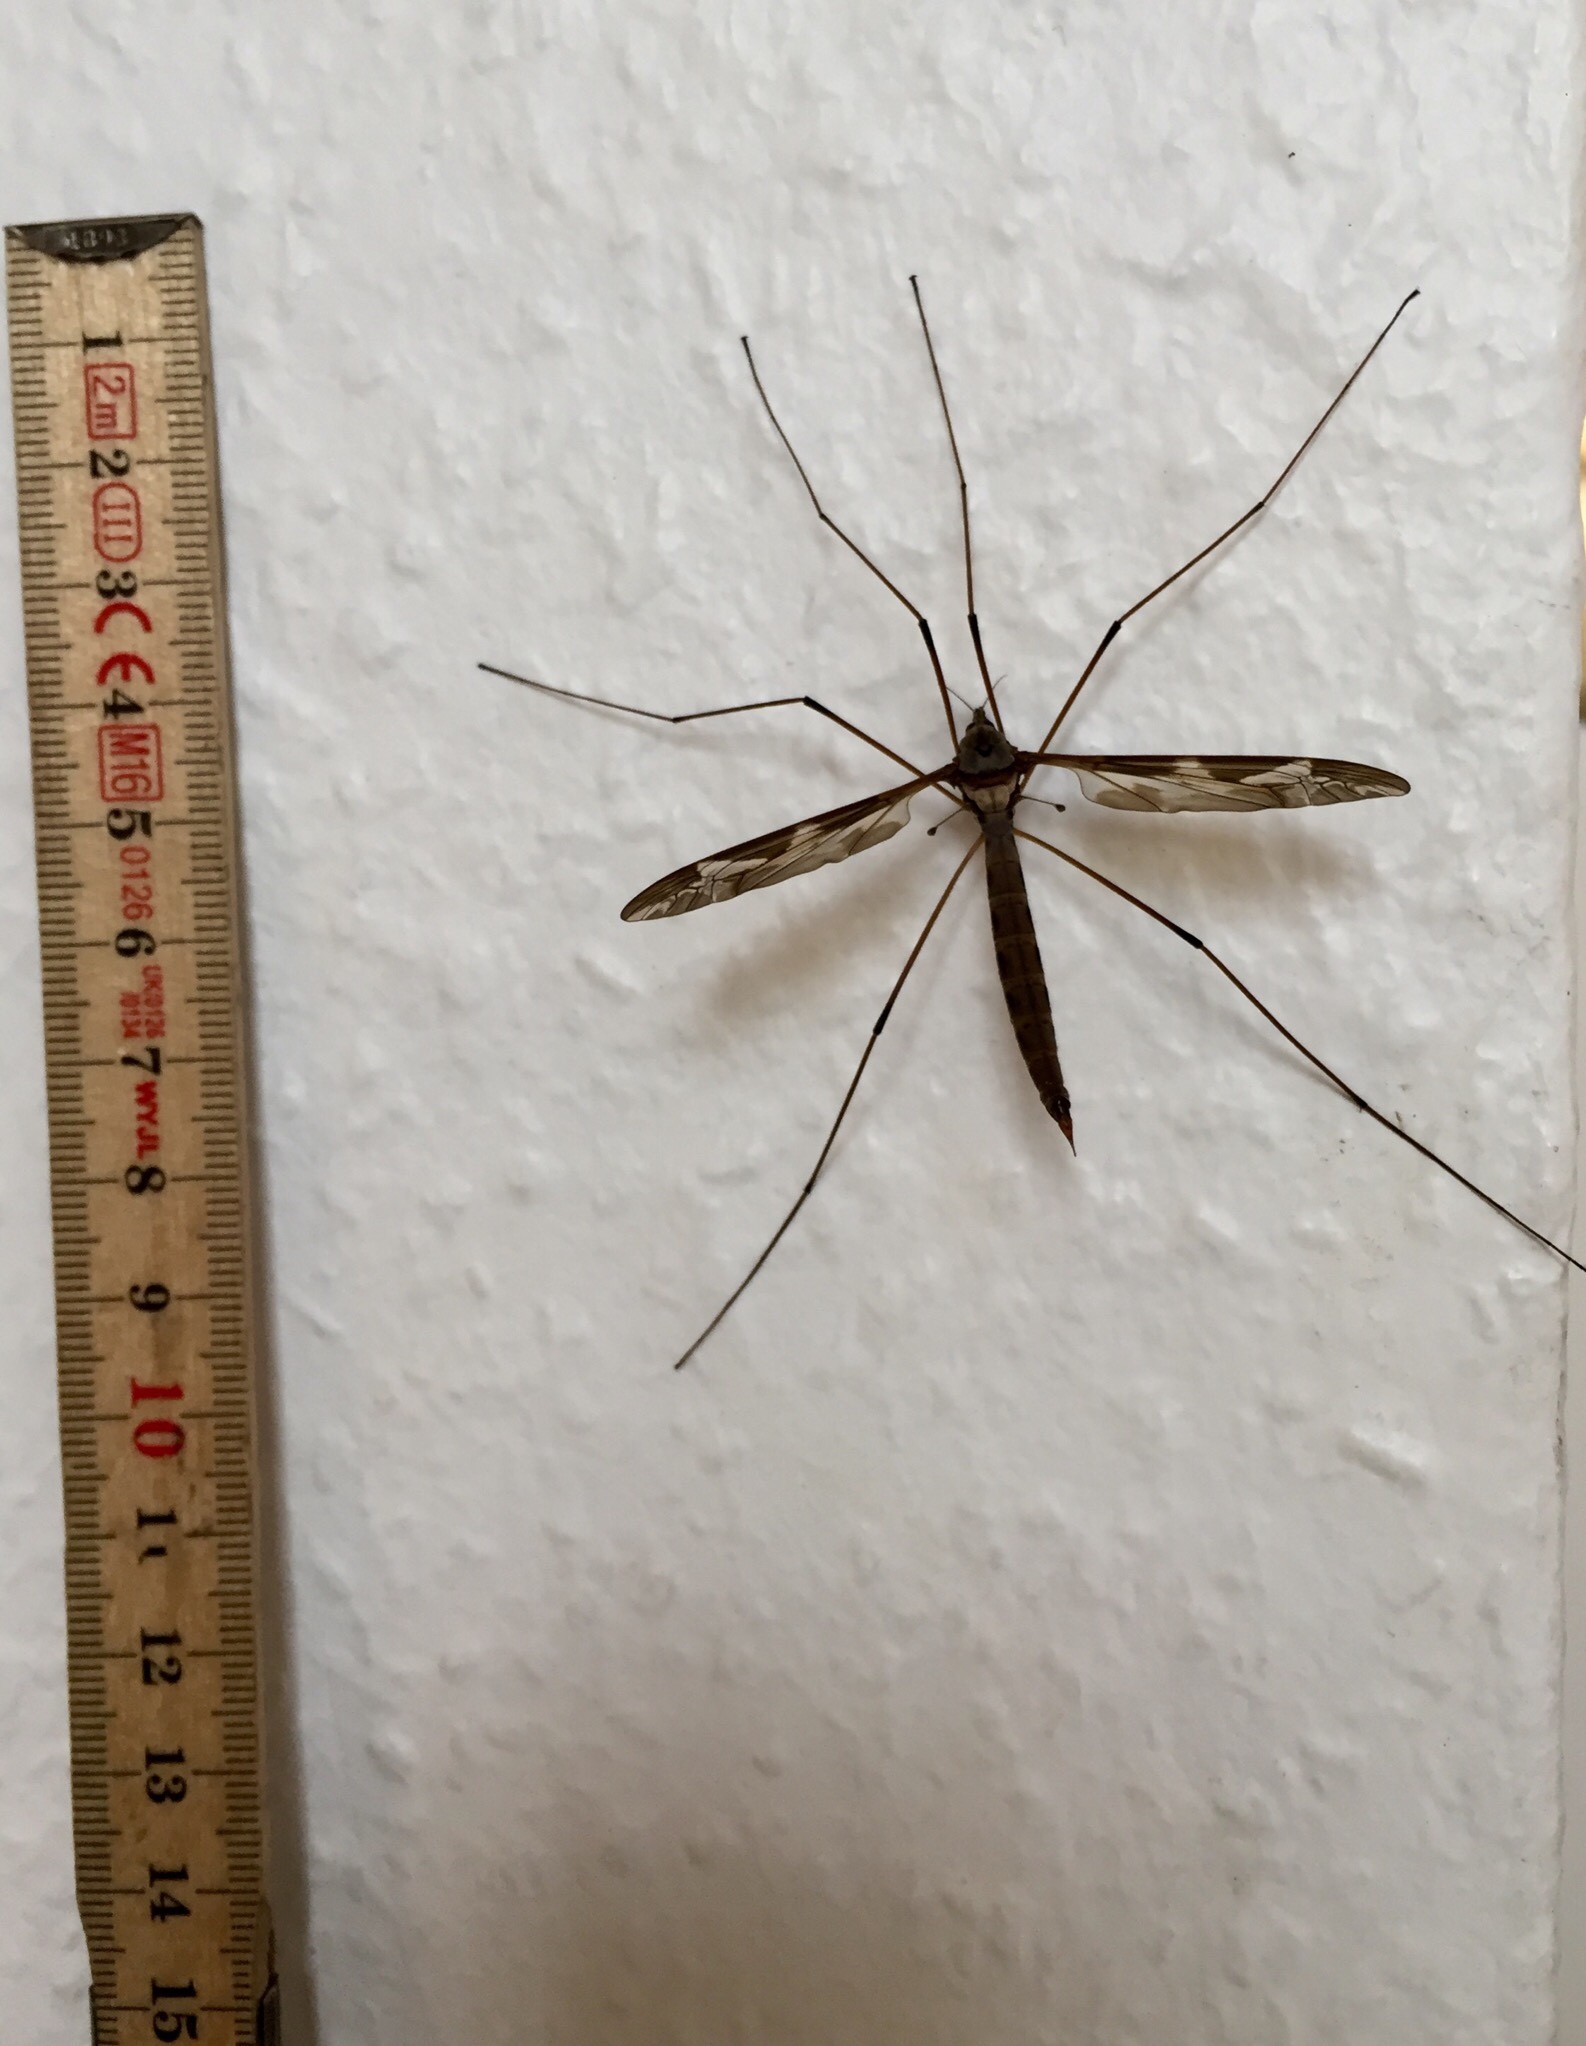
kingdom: Animalia
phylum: Arthropoda
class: Insecta
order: Diptera
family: Tipulidae
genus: Tipula
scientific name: Tipula maxima
